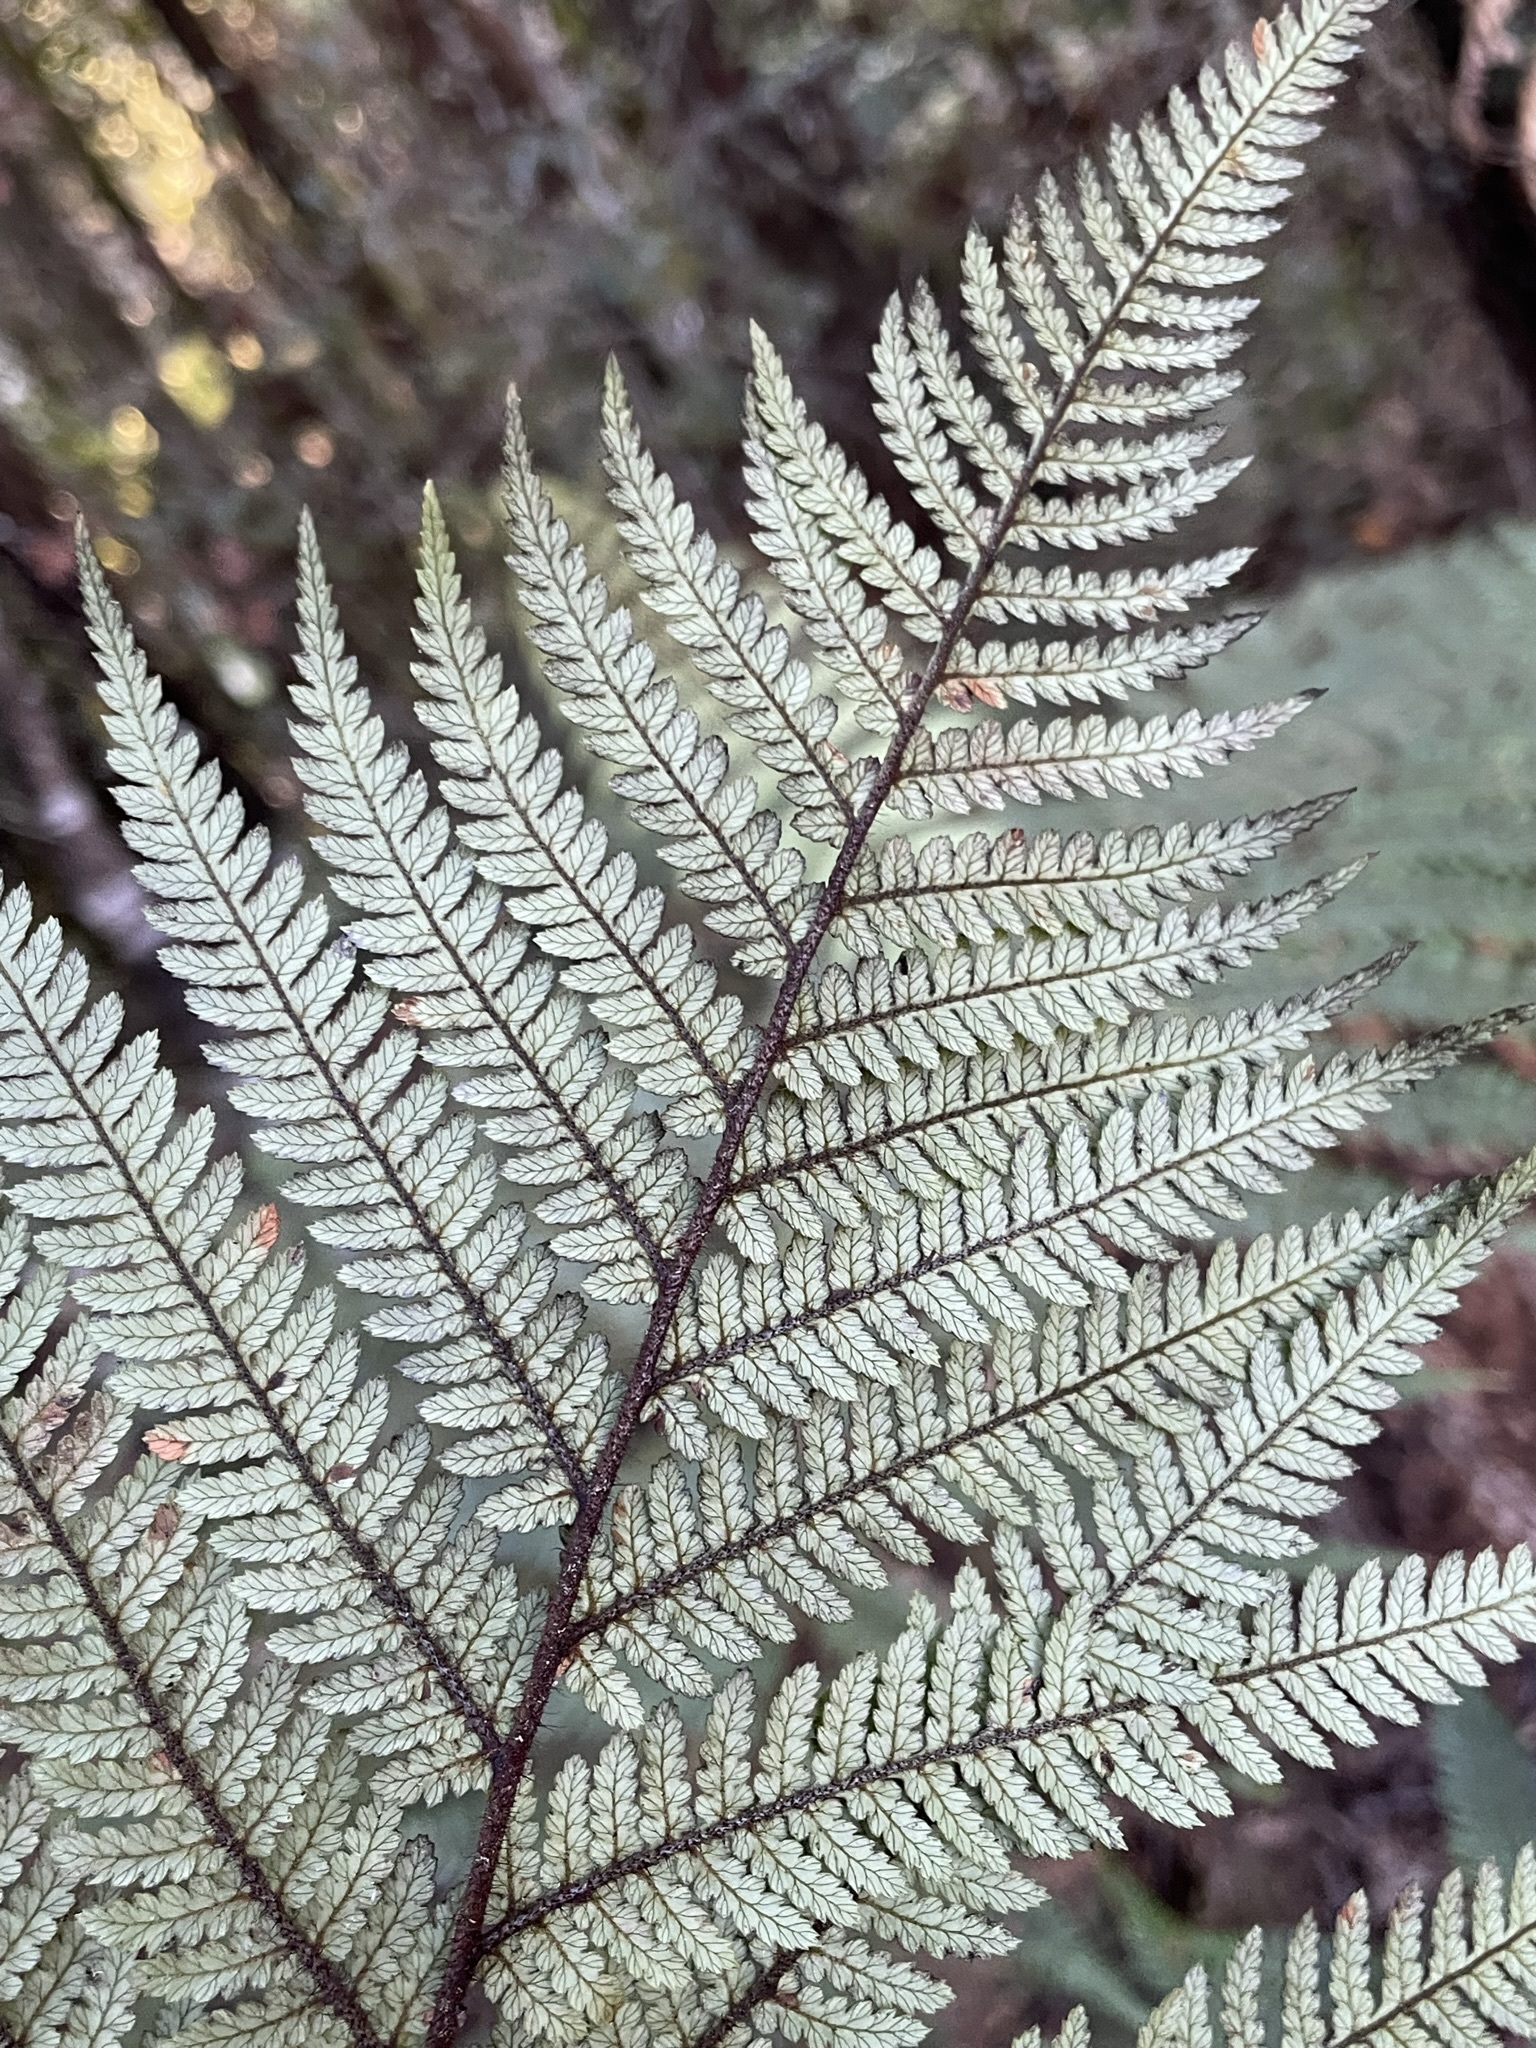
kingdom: Plantae
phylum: Tracheophyta
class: Polypodiopsida
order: Cyatheales
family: Dicksoniaceae
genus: Dicksonia
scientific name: Dicksonia squarrosa
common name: Hard treefern
